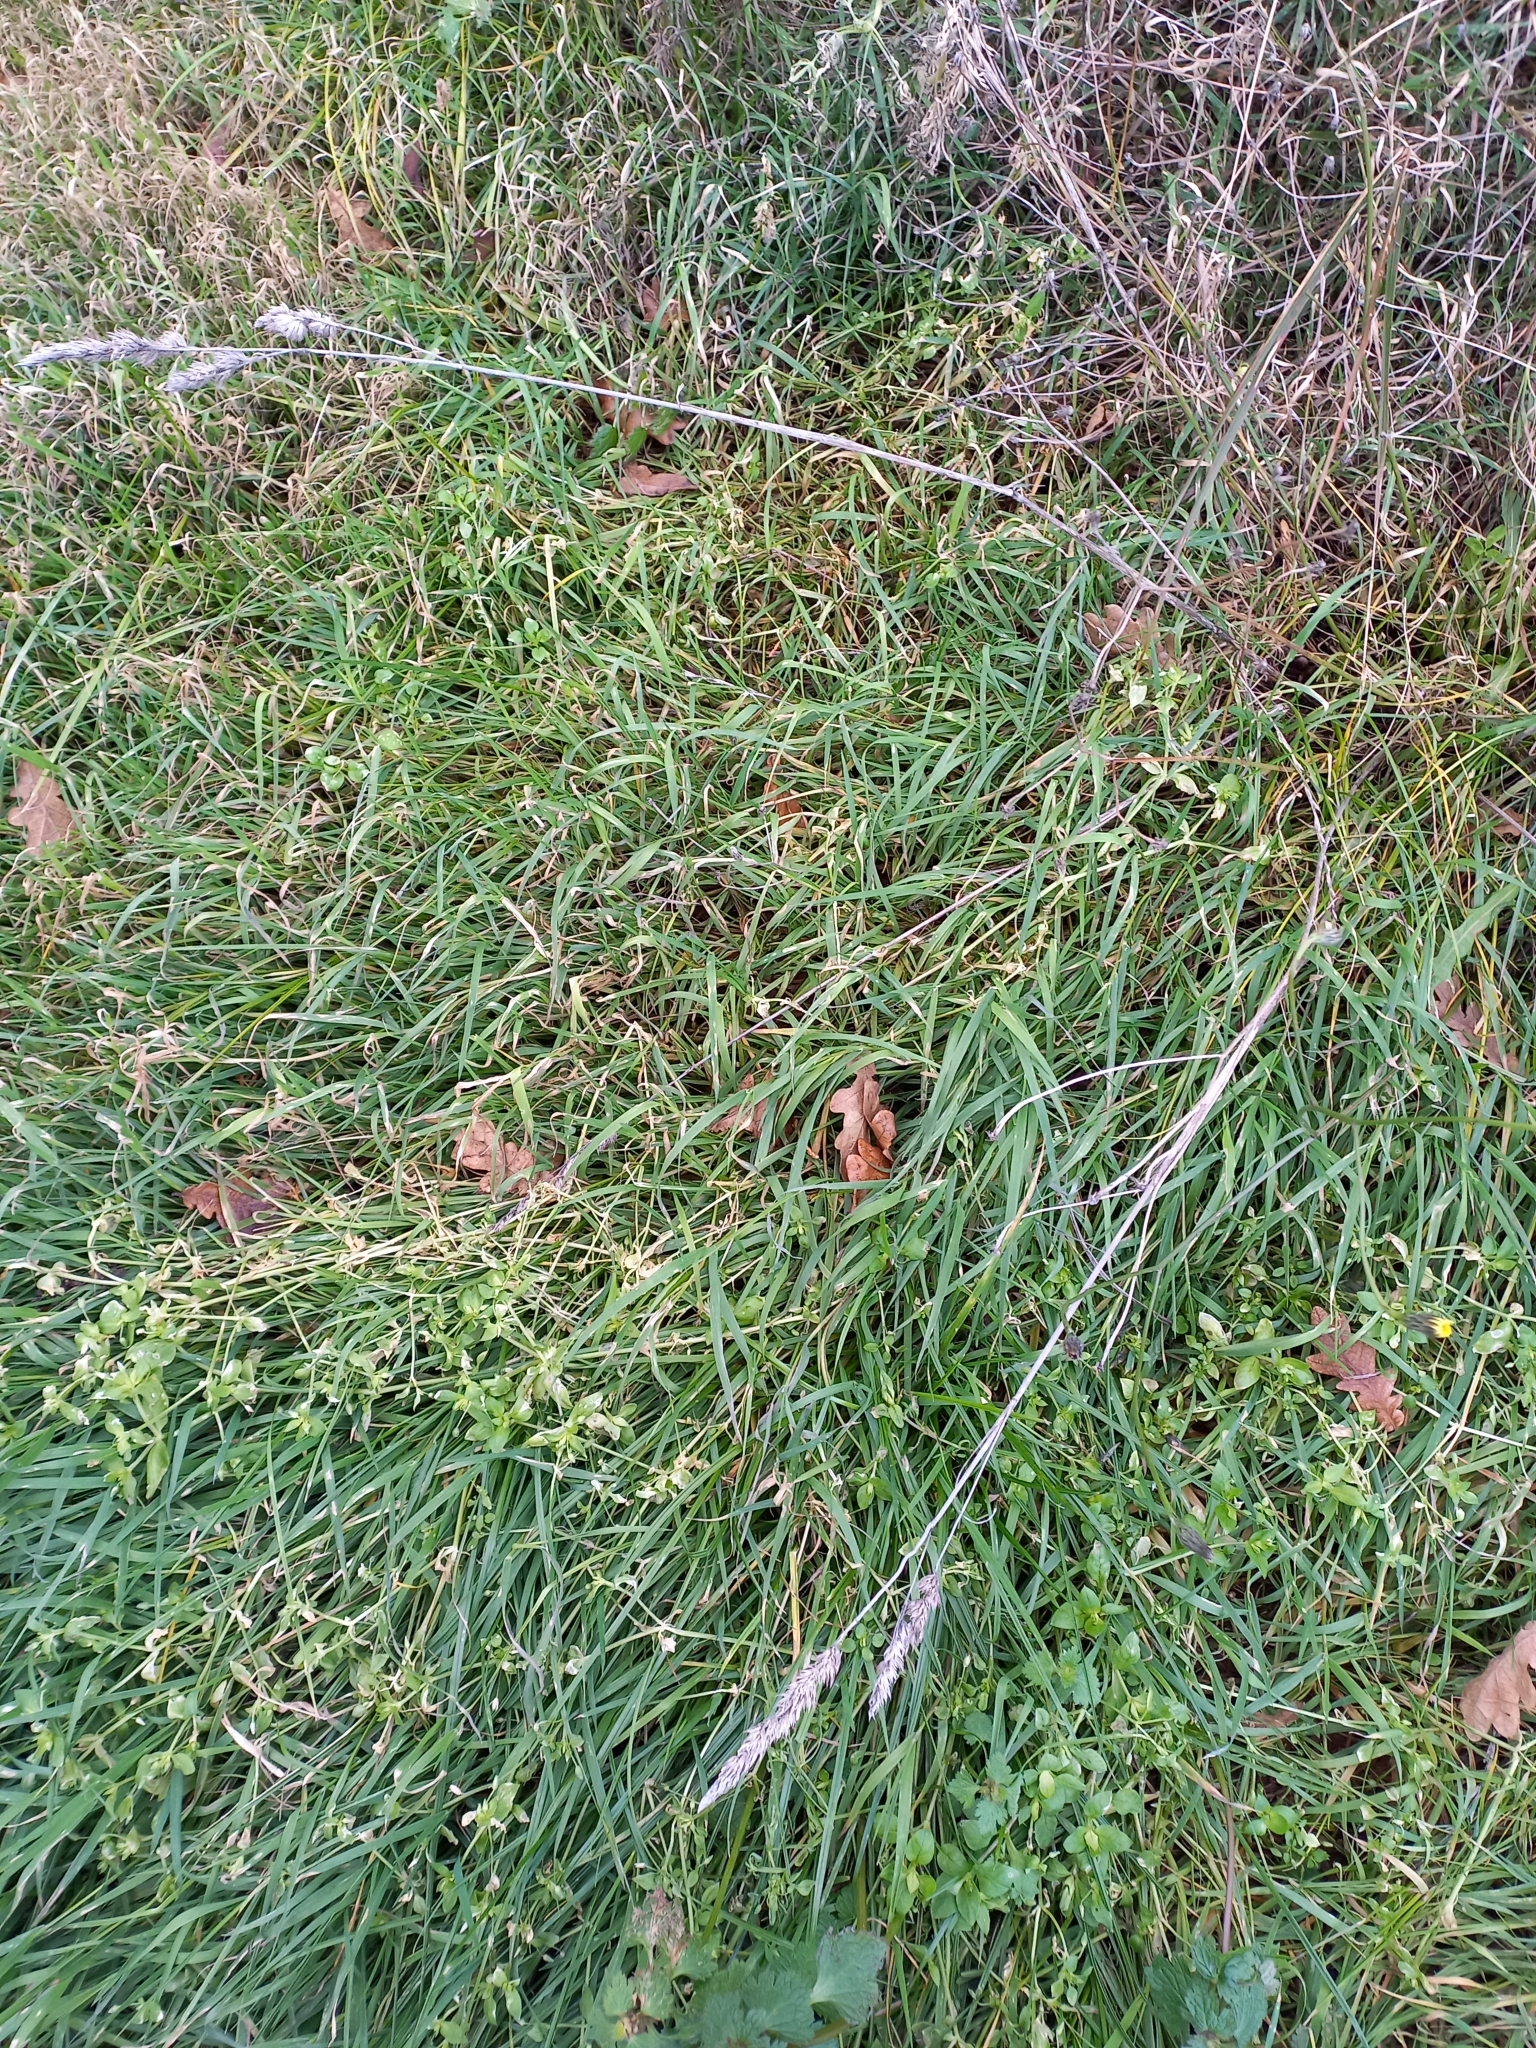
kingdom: Plantae
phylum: Tracheophyta
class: Liliopsida
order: Poales
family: Poaceae
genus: Dactylis
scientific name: Dactylis glomerata
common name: Orchardgrass
